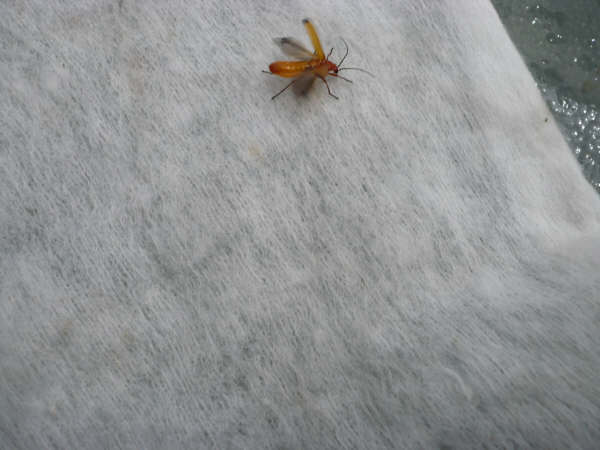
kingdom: Animalia
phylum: Arthropoda
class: Insecta
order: Coleoptera
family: Cantharidae
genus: Rhagonycha
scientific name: Rhagonycha fulva
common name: Common red soldier beetle
